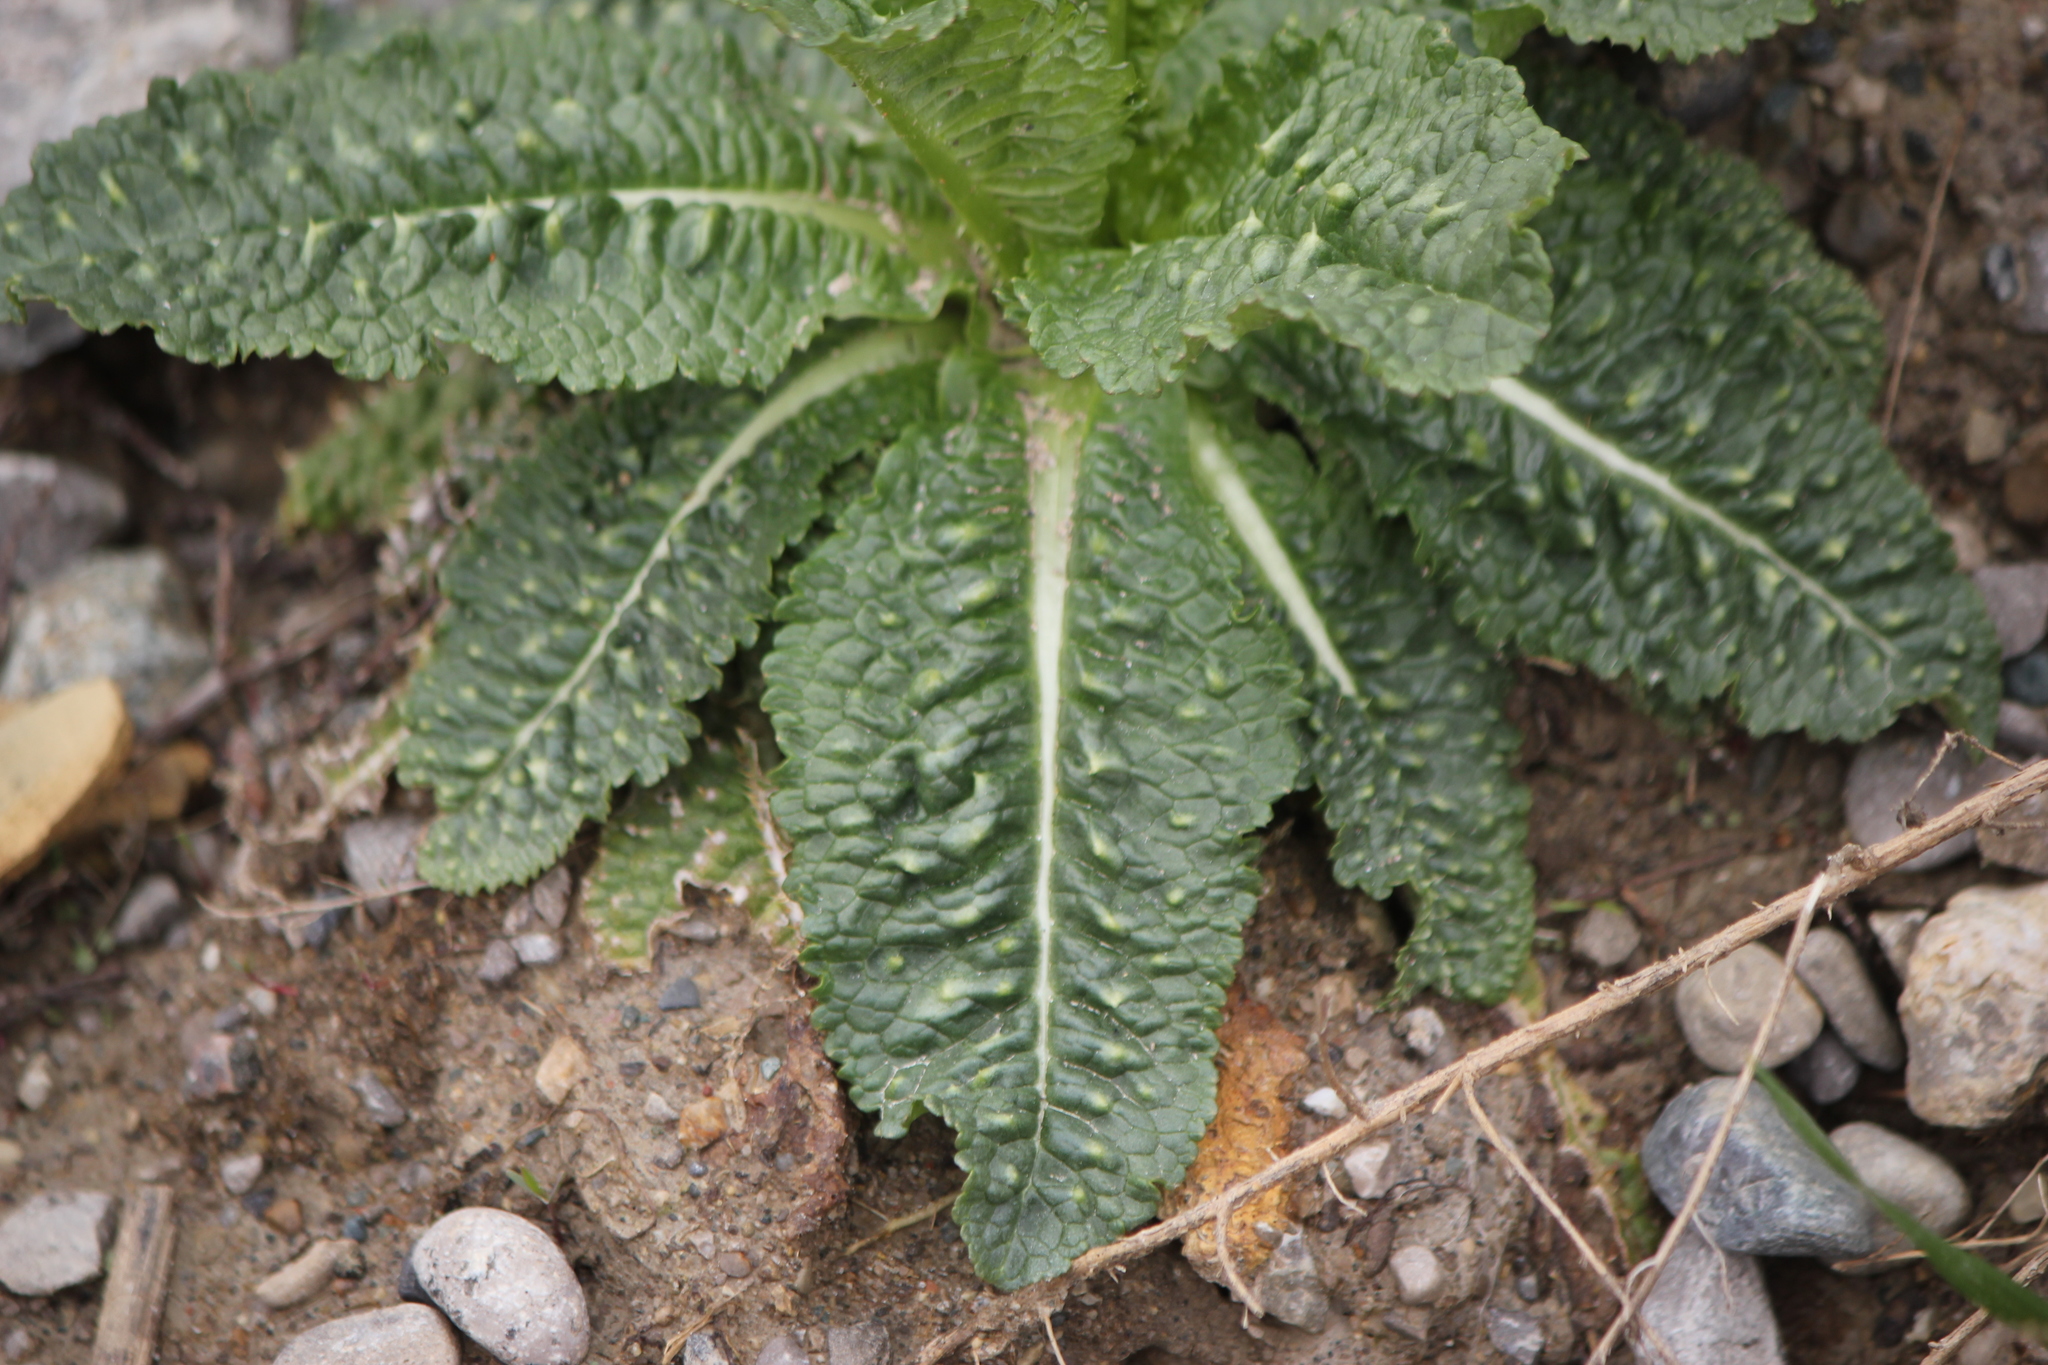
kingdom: Plantae
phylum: Tracheophyta
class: Magnoliopsida
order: Dipsacales
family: Caprifoliaceae
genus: Dipsacus
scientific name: Dipsacus fullonum
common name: Teasel
